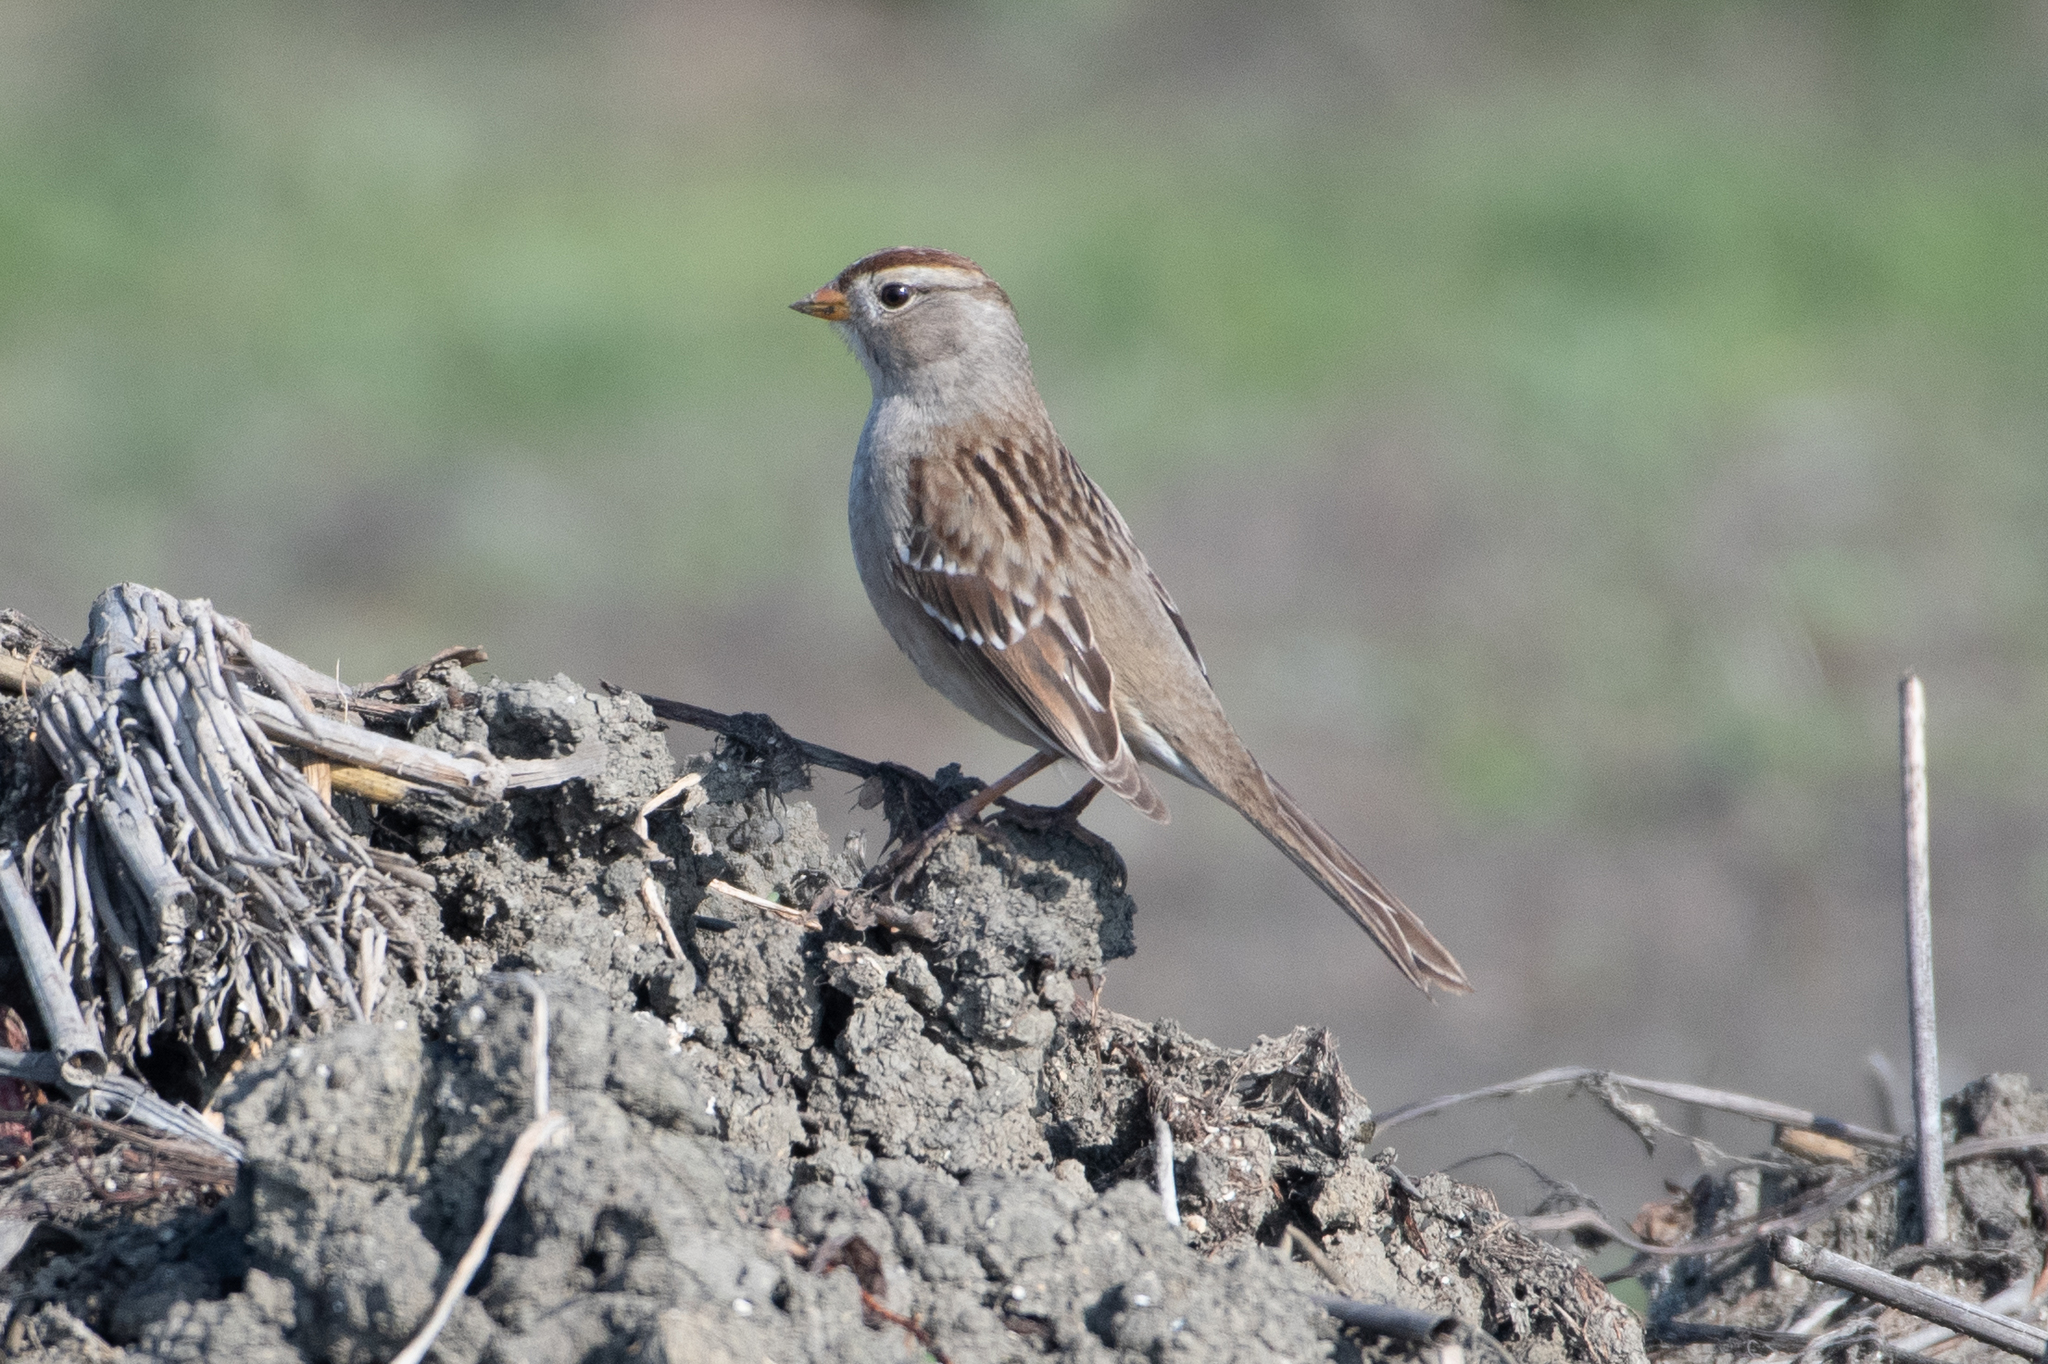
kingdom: Animalia
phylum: Chordata
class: Aves
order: Passeriformes
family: Passerellidae
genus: Zonotrichia
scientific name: Zonotrichia leucophrys
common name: White-crowned sparrow
